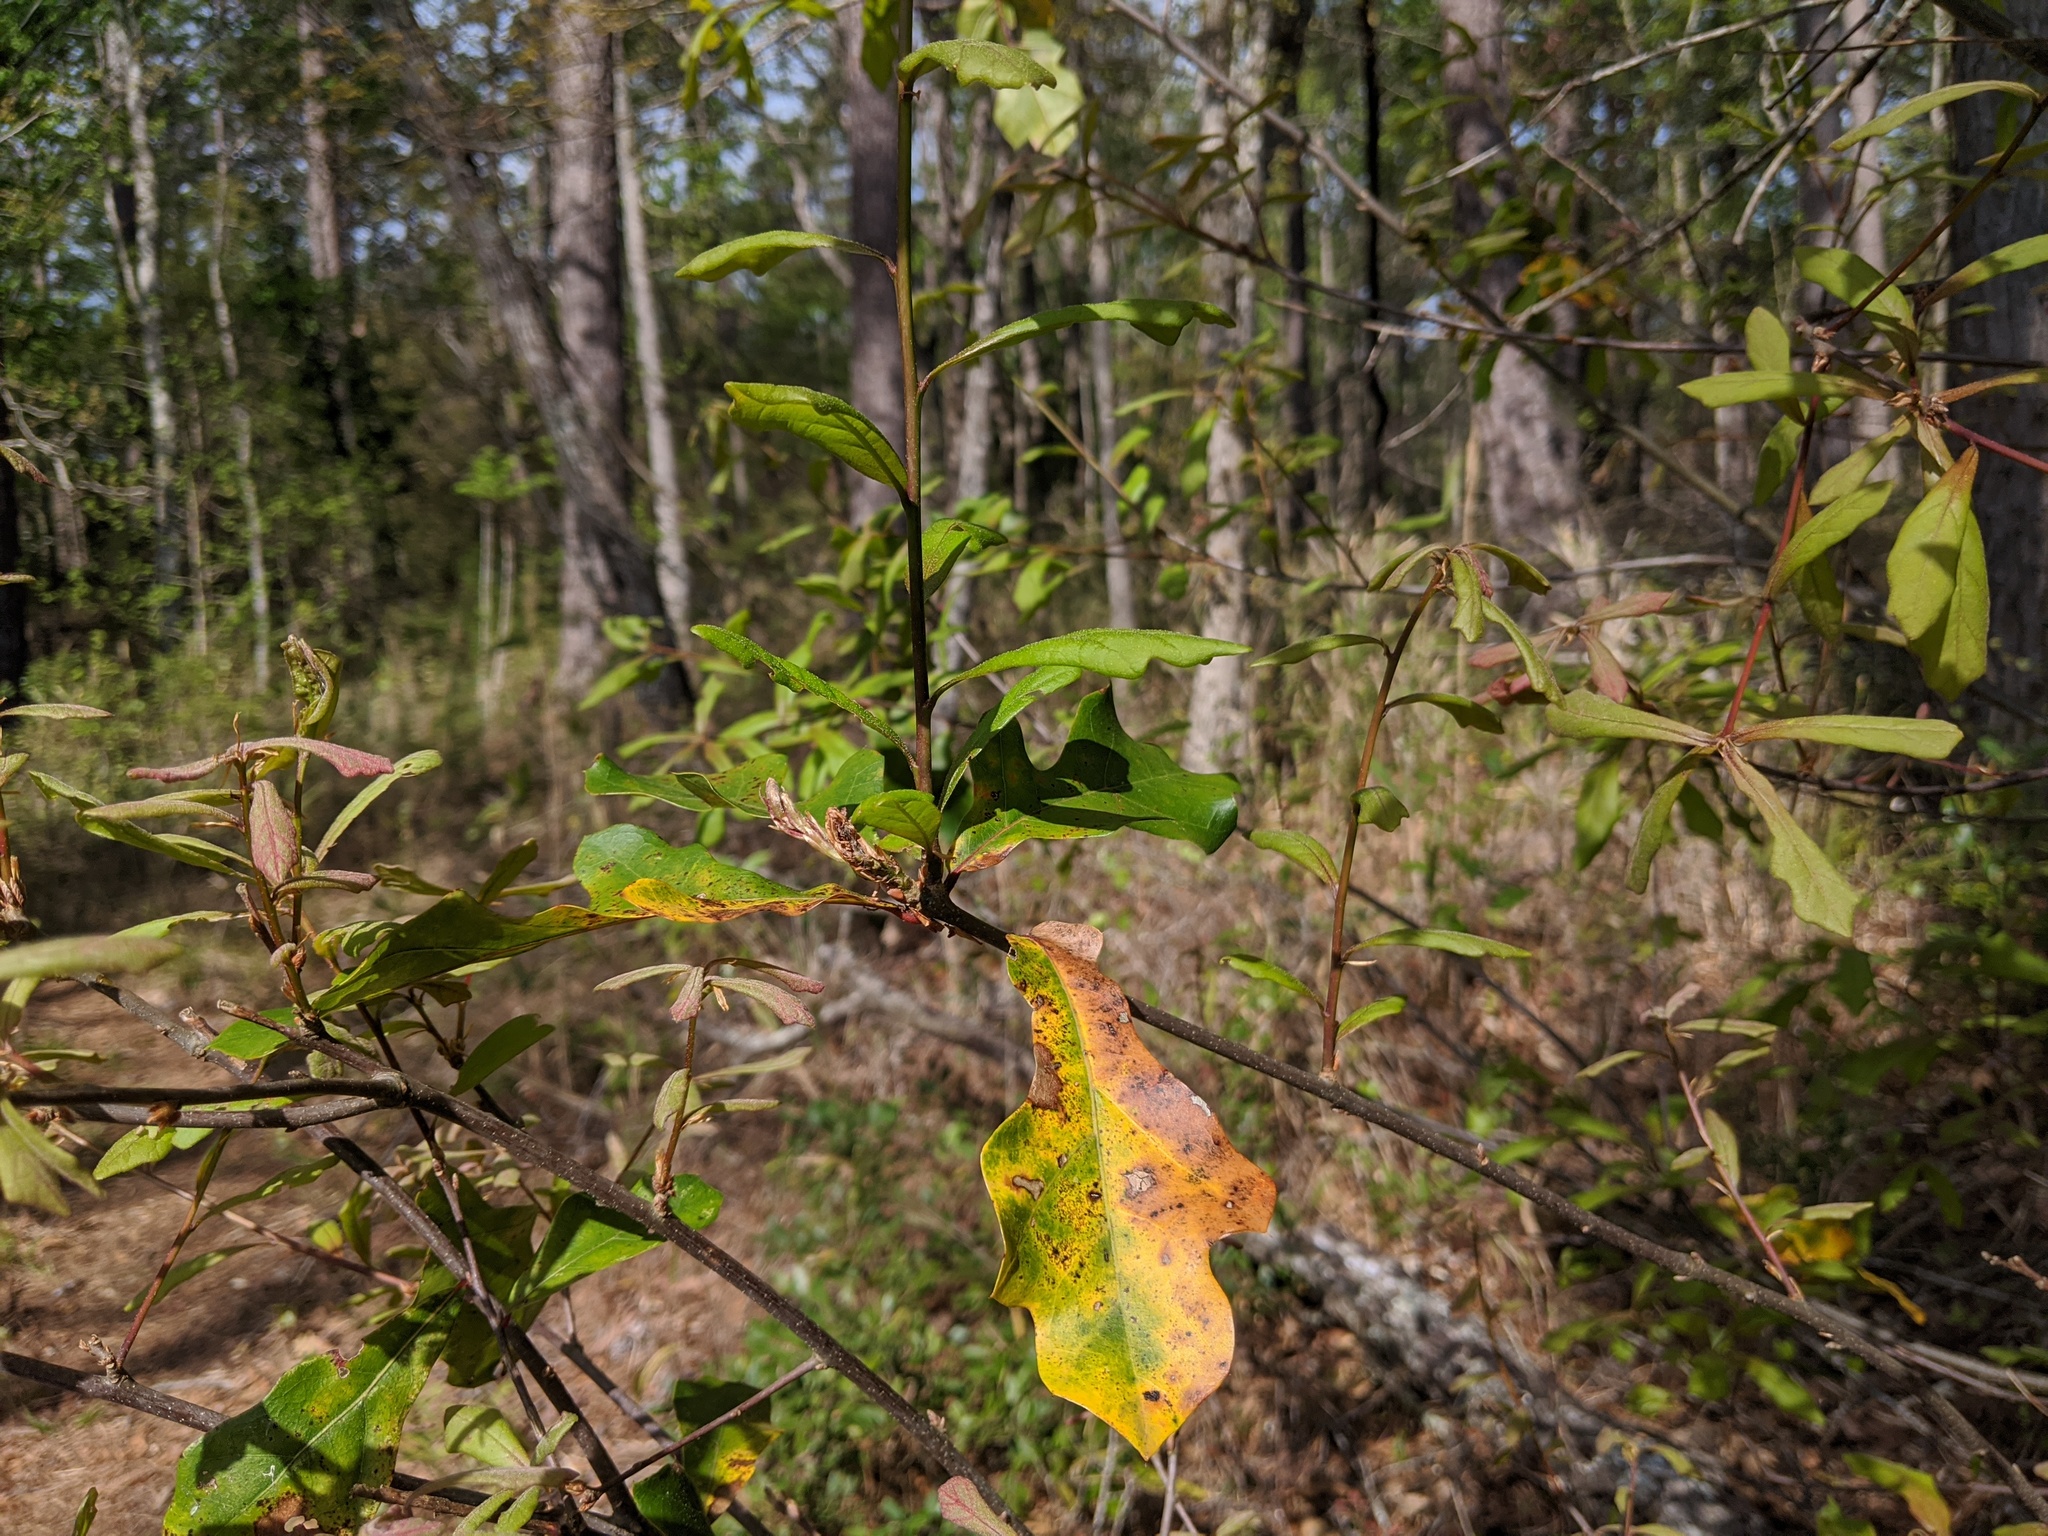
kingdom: Plantae
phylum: Tracheophyta
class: Magnoliopsida
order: Fagales
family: Fagaceae
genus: Quercus
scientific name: Quercus nigra
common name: Water oak
